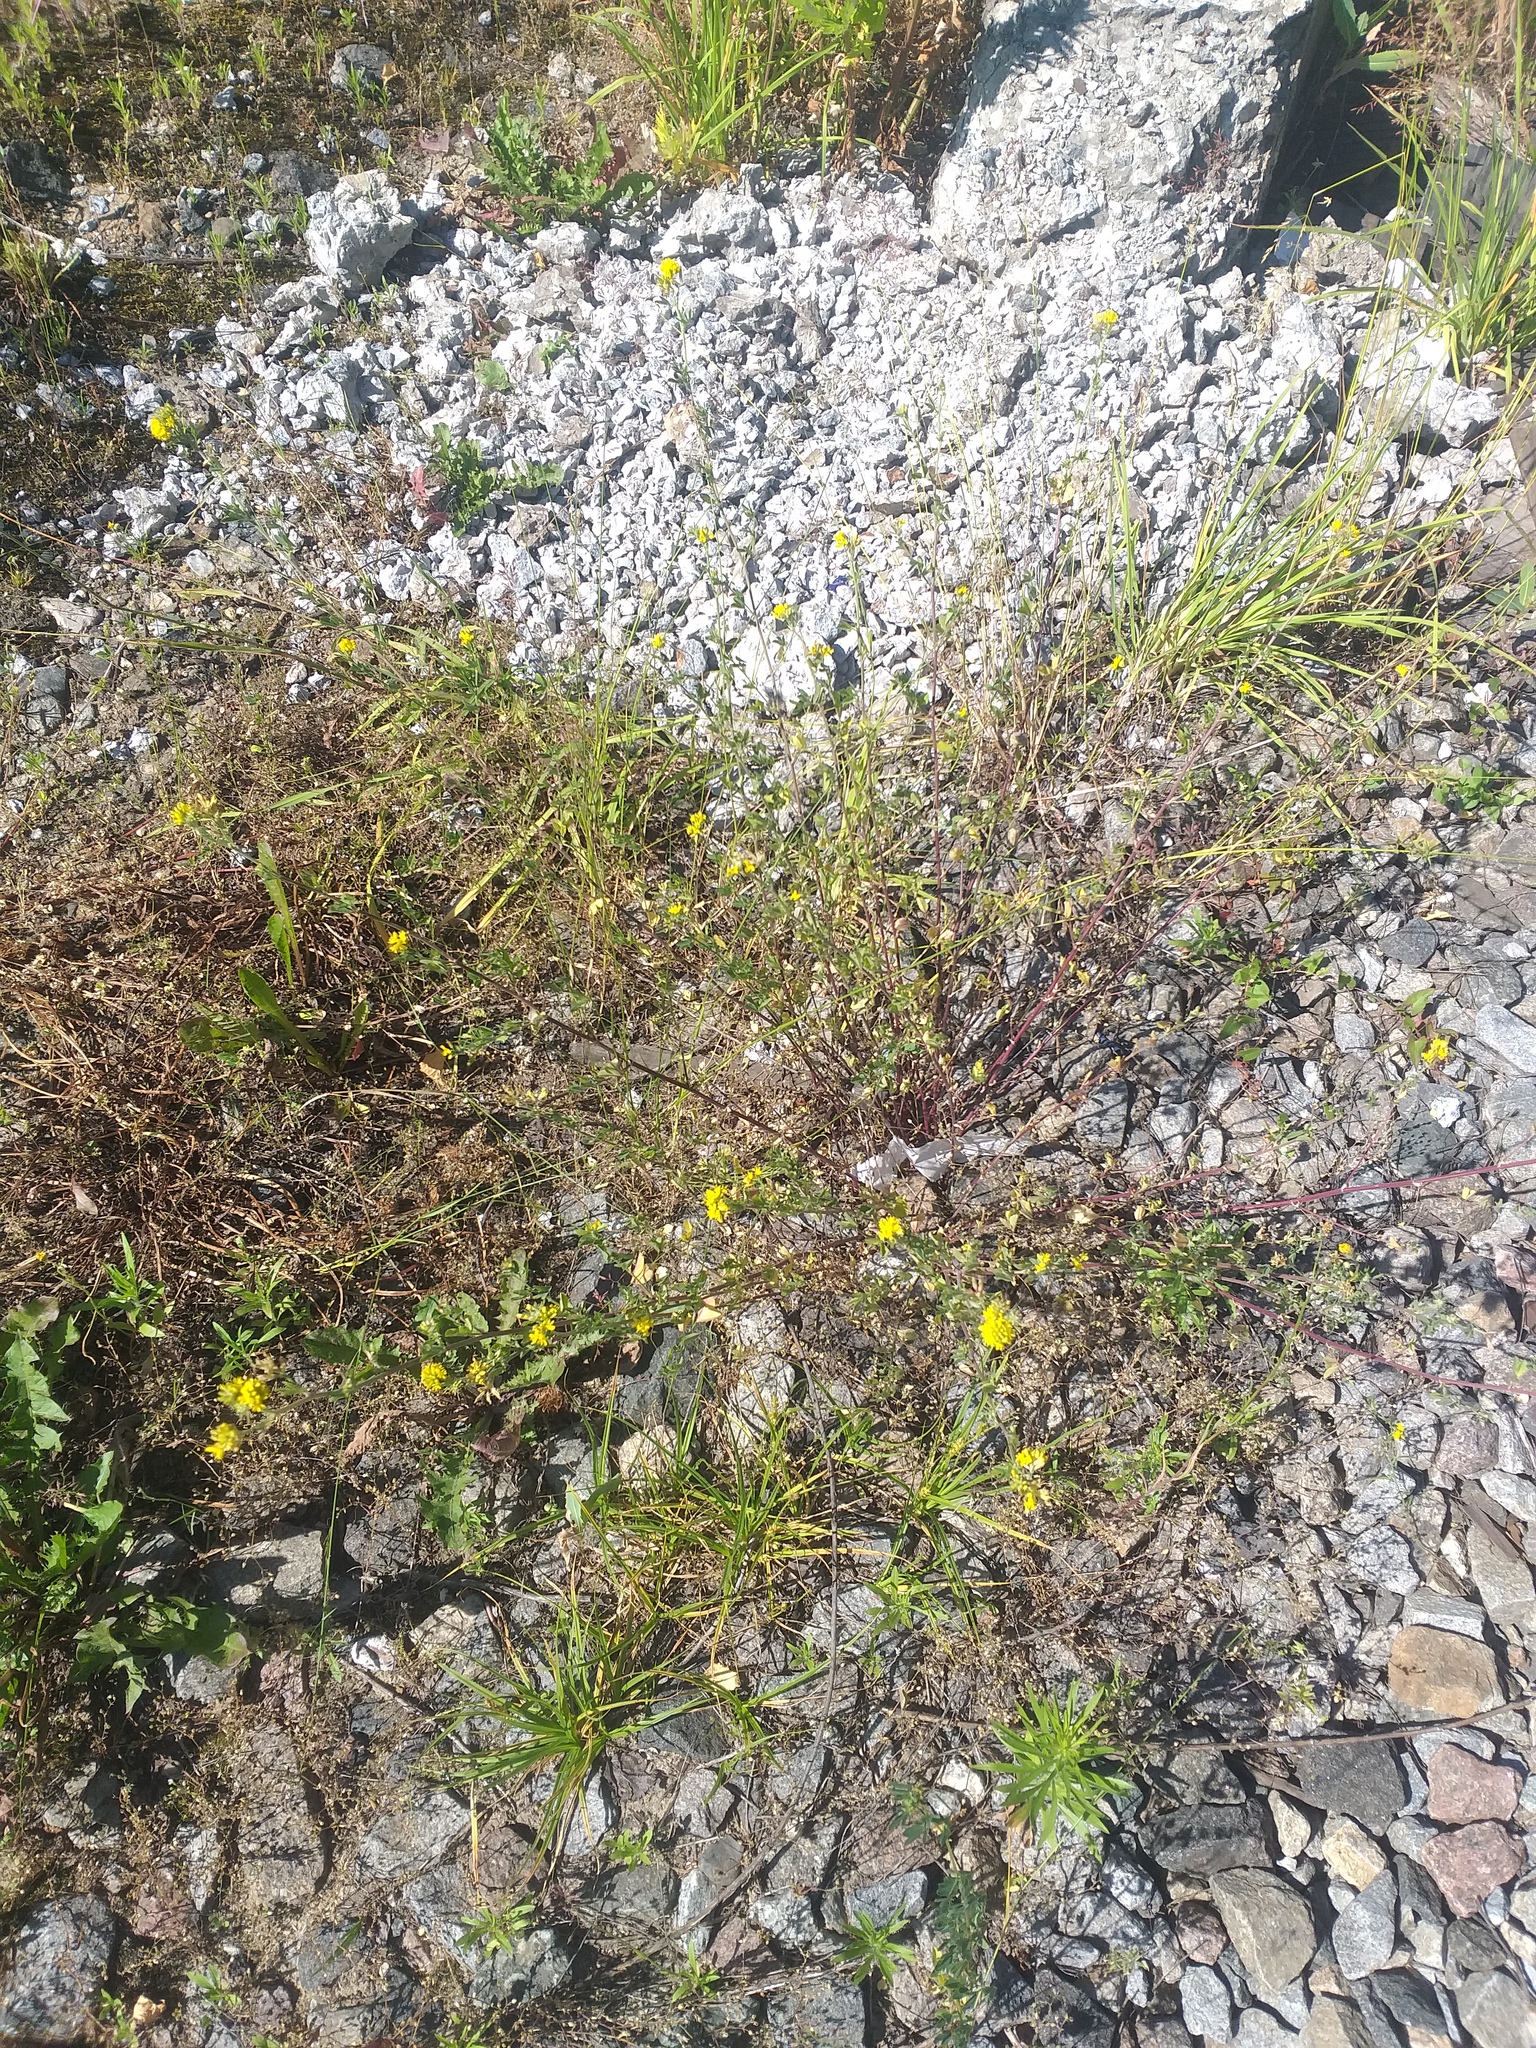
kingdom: Plantae
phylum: Tracheophyta
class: Magnoliopsida
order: Fabales
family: Fabaceae
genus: Medicago
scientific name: Medicago falcata
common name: Sickle medick
